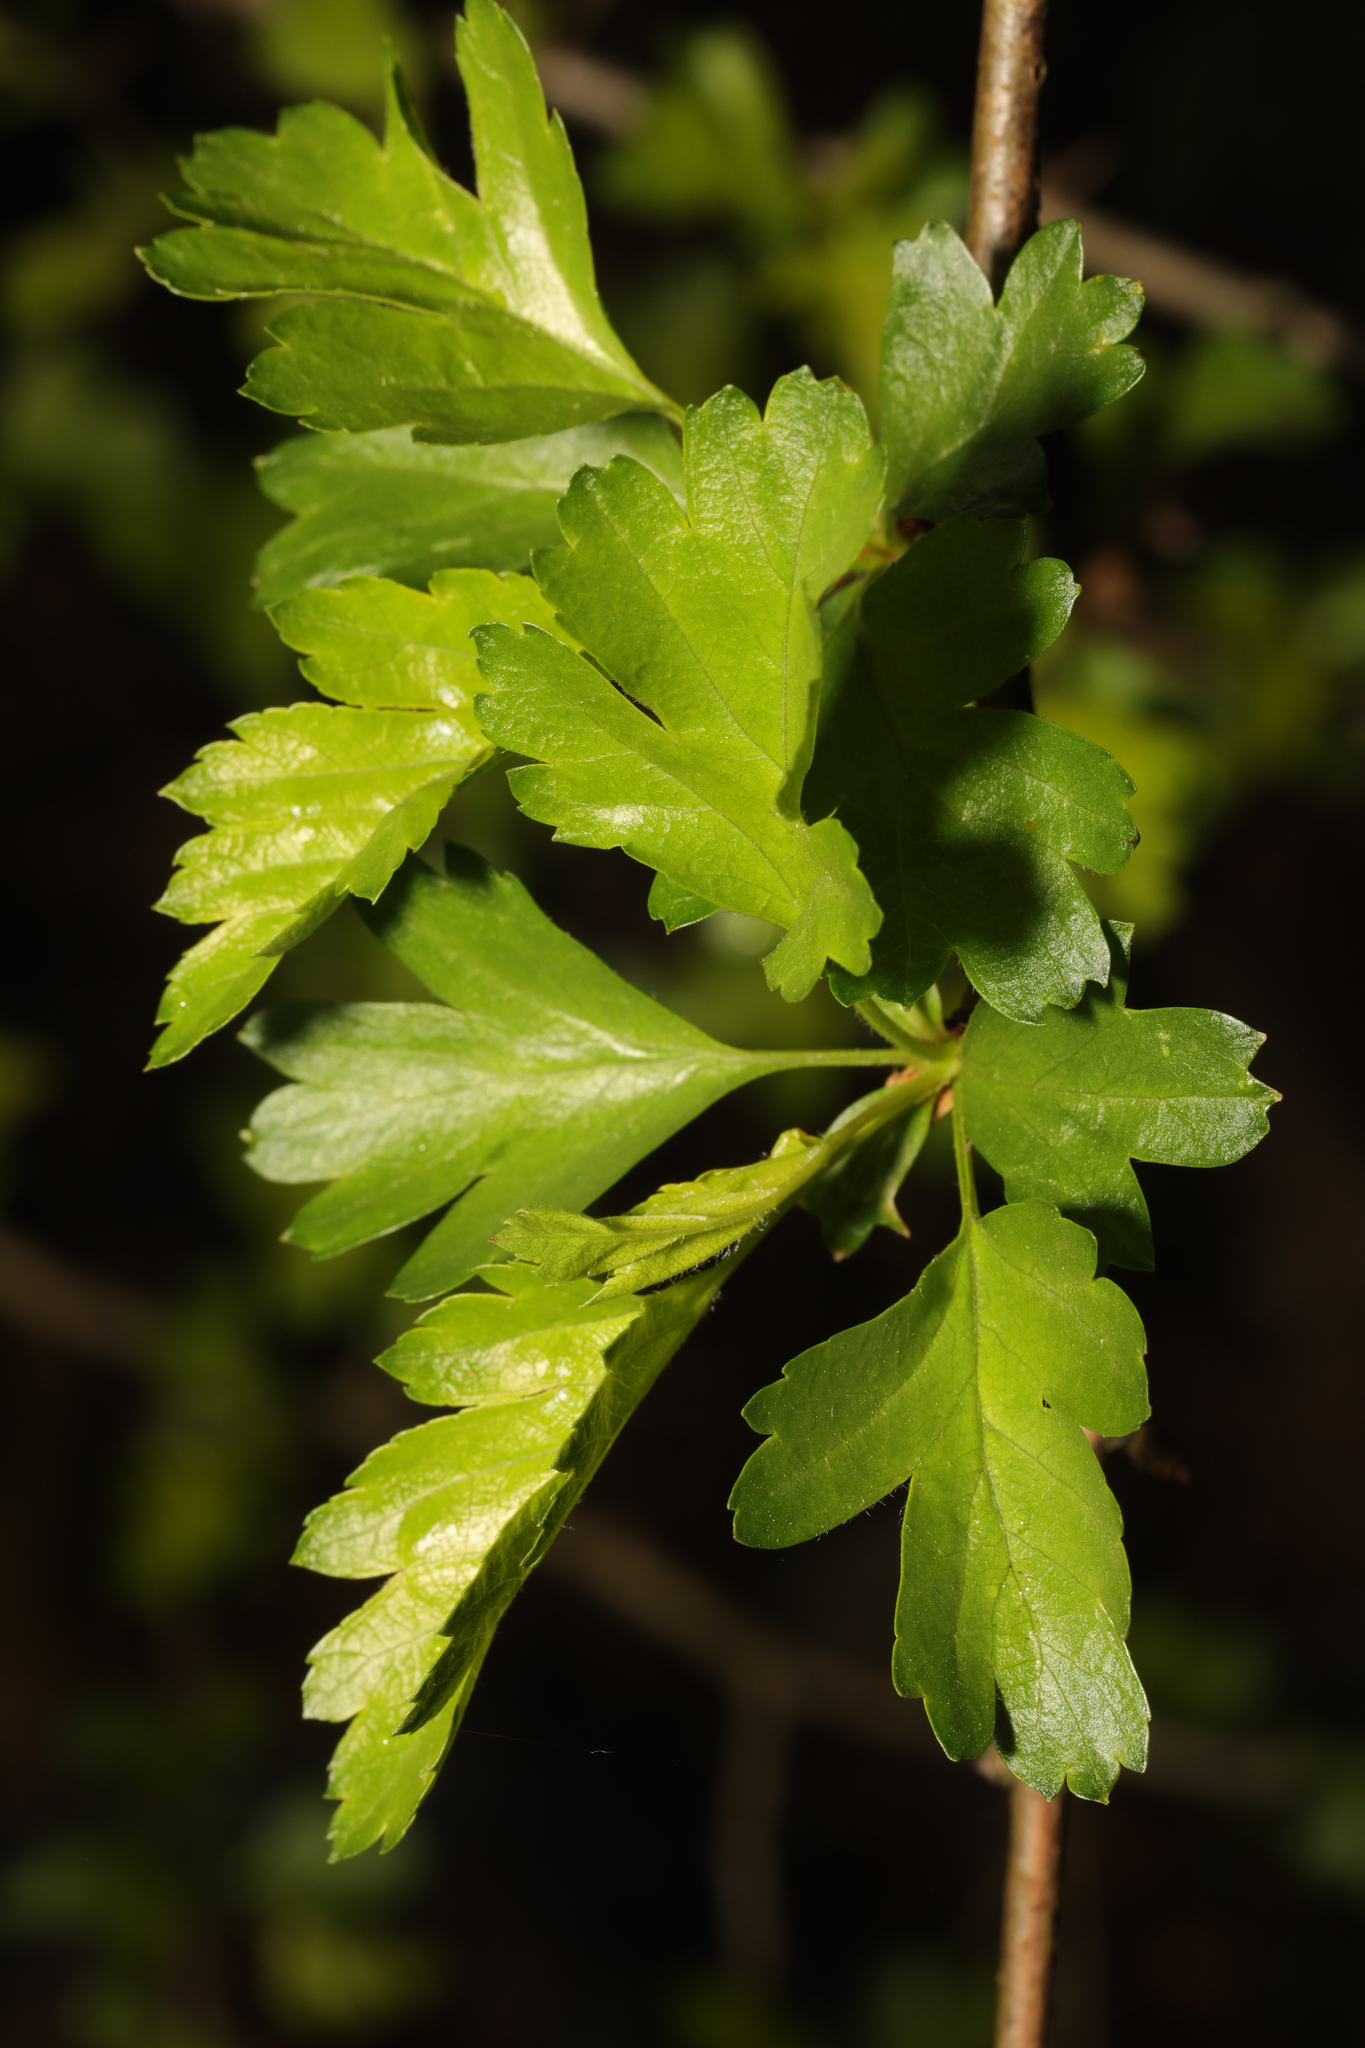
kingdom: Plantae
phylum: Tracheophyta
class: Magnoliopsida
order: Rosales
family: Rosaceae
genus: Crataegus
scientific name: Crataegus monogyna
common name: Hawthorn
